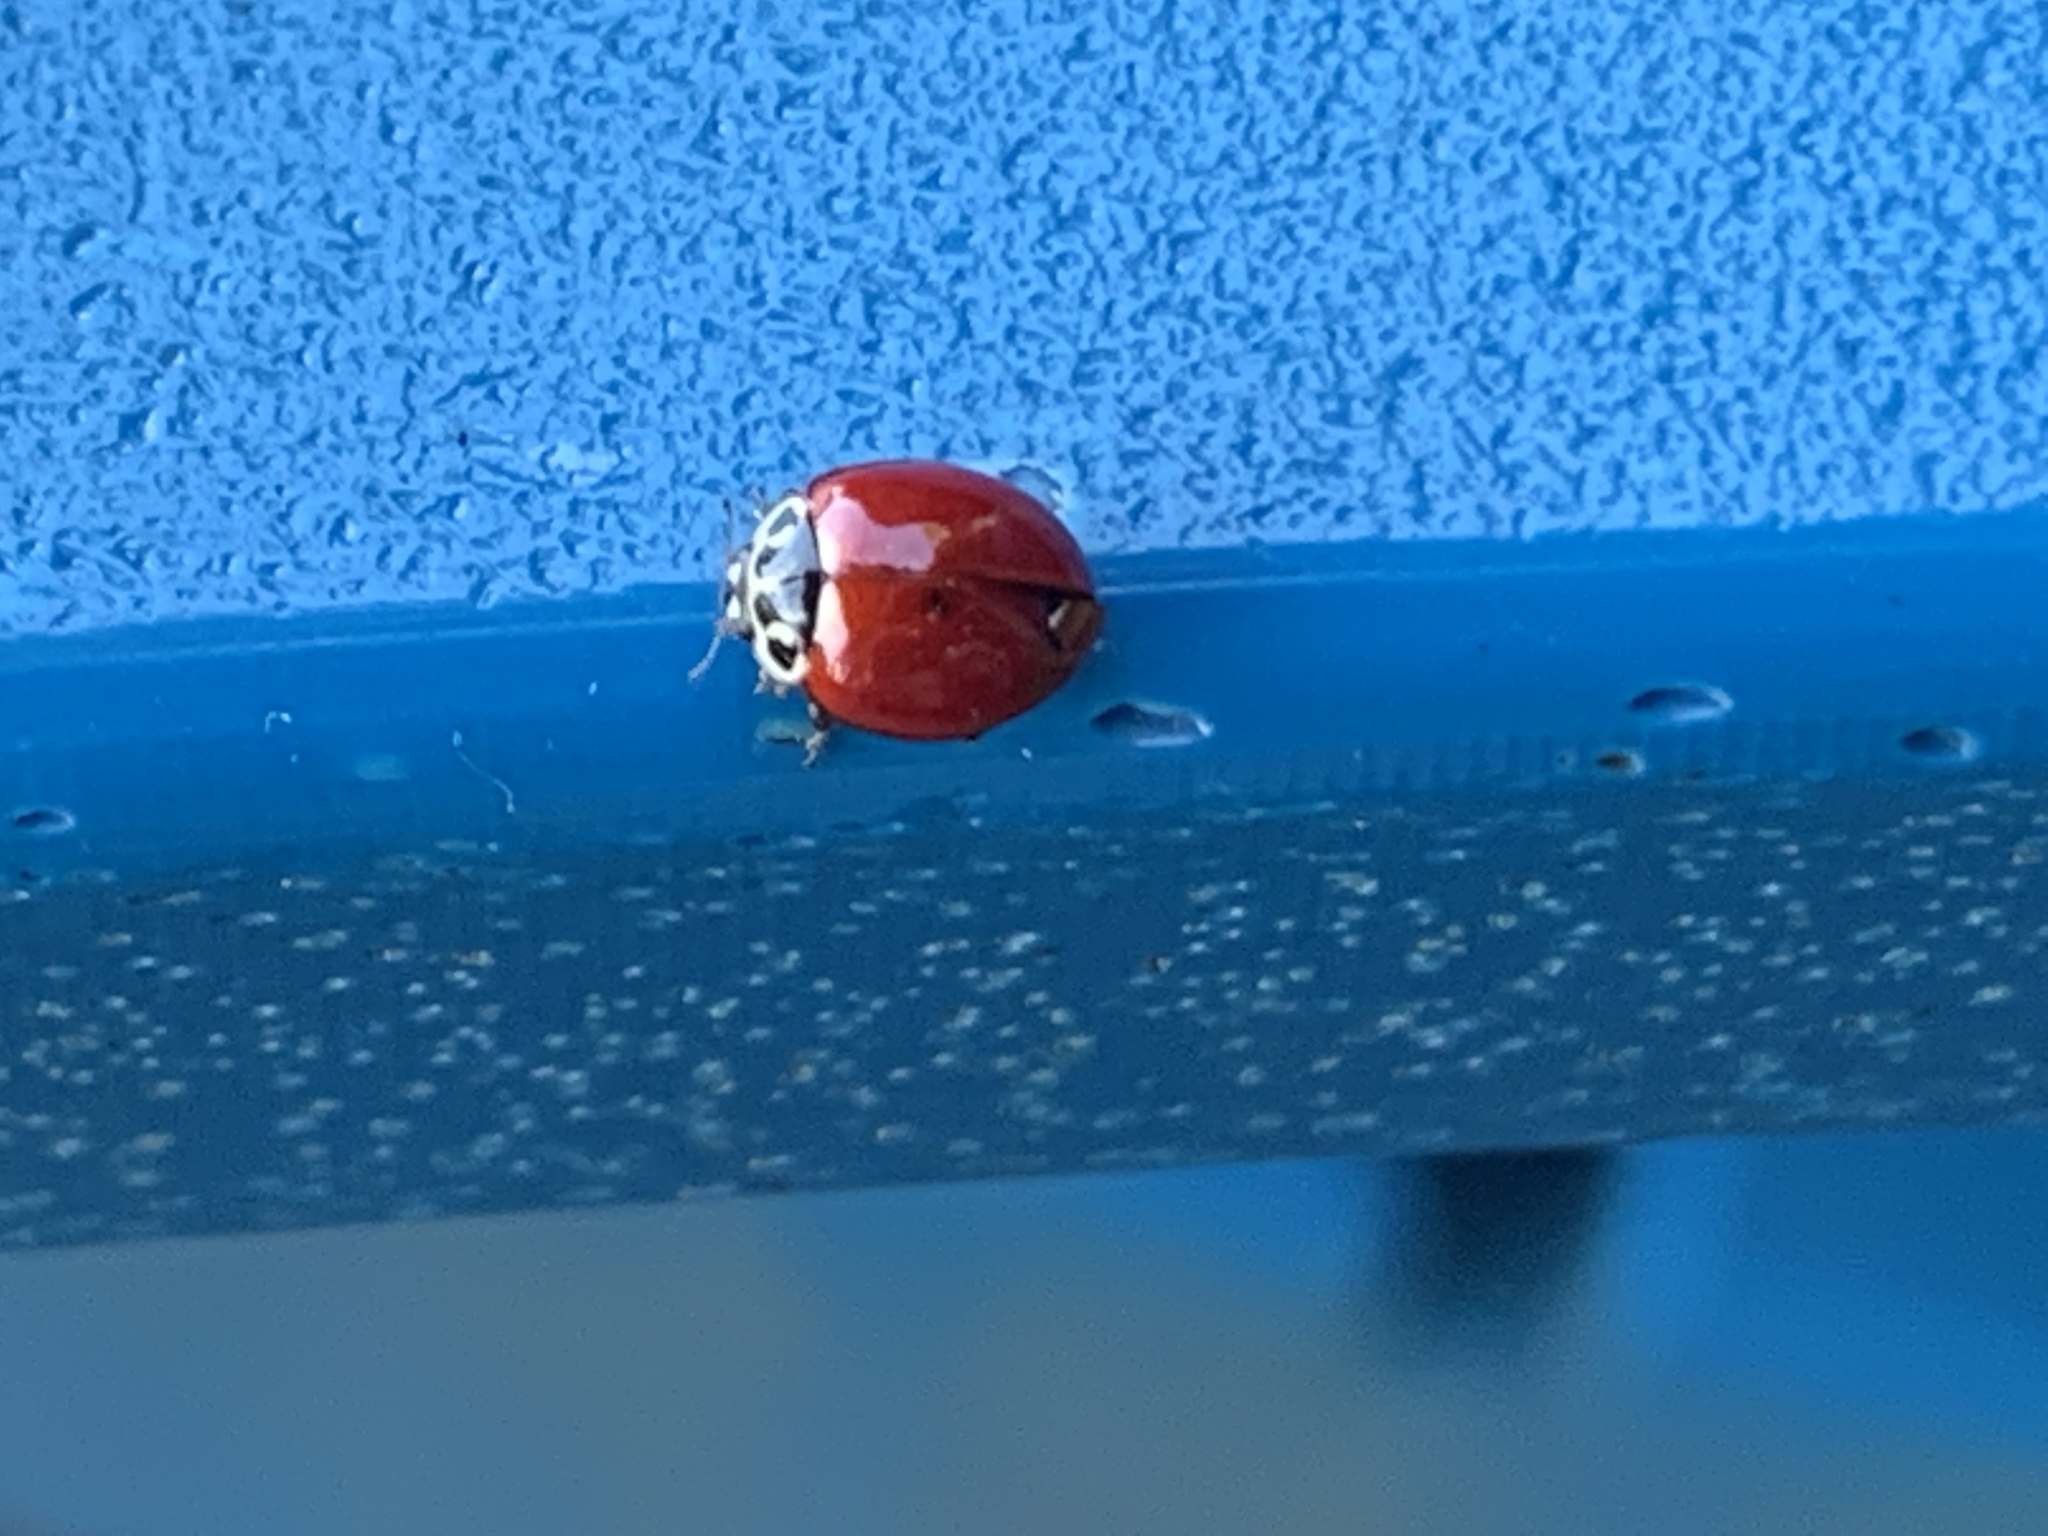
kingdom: Animalia
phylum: Arthropoda
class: Insecta
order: Coleoptera
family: Coccinellidae
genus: Cycloneda
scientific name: Cycloneda polita
